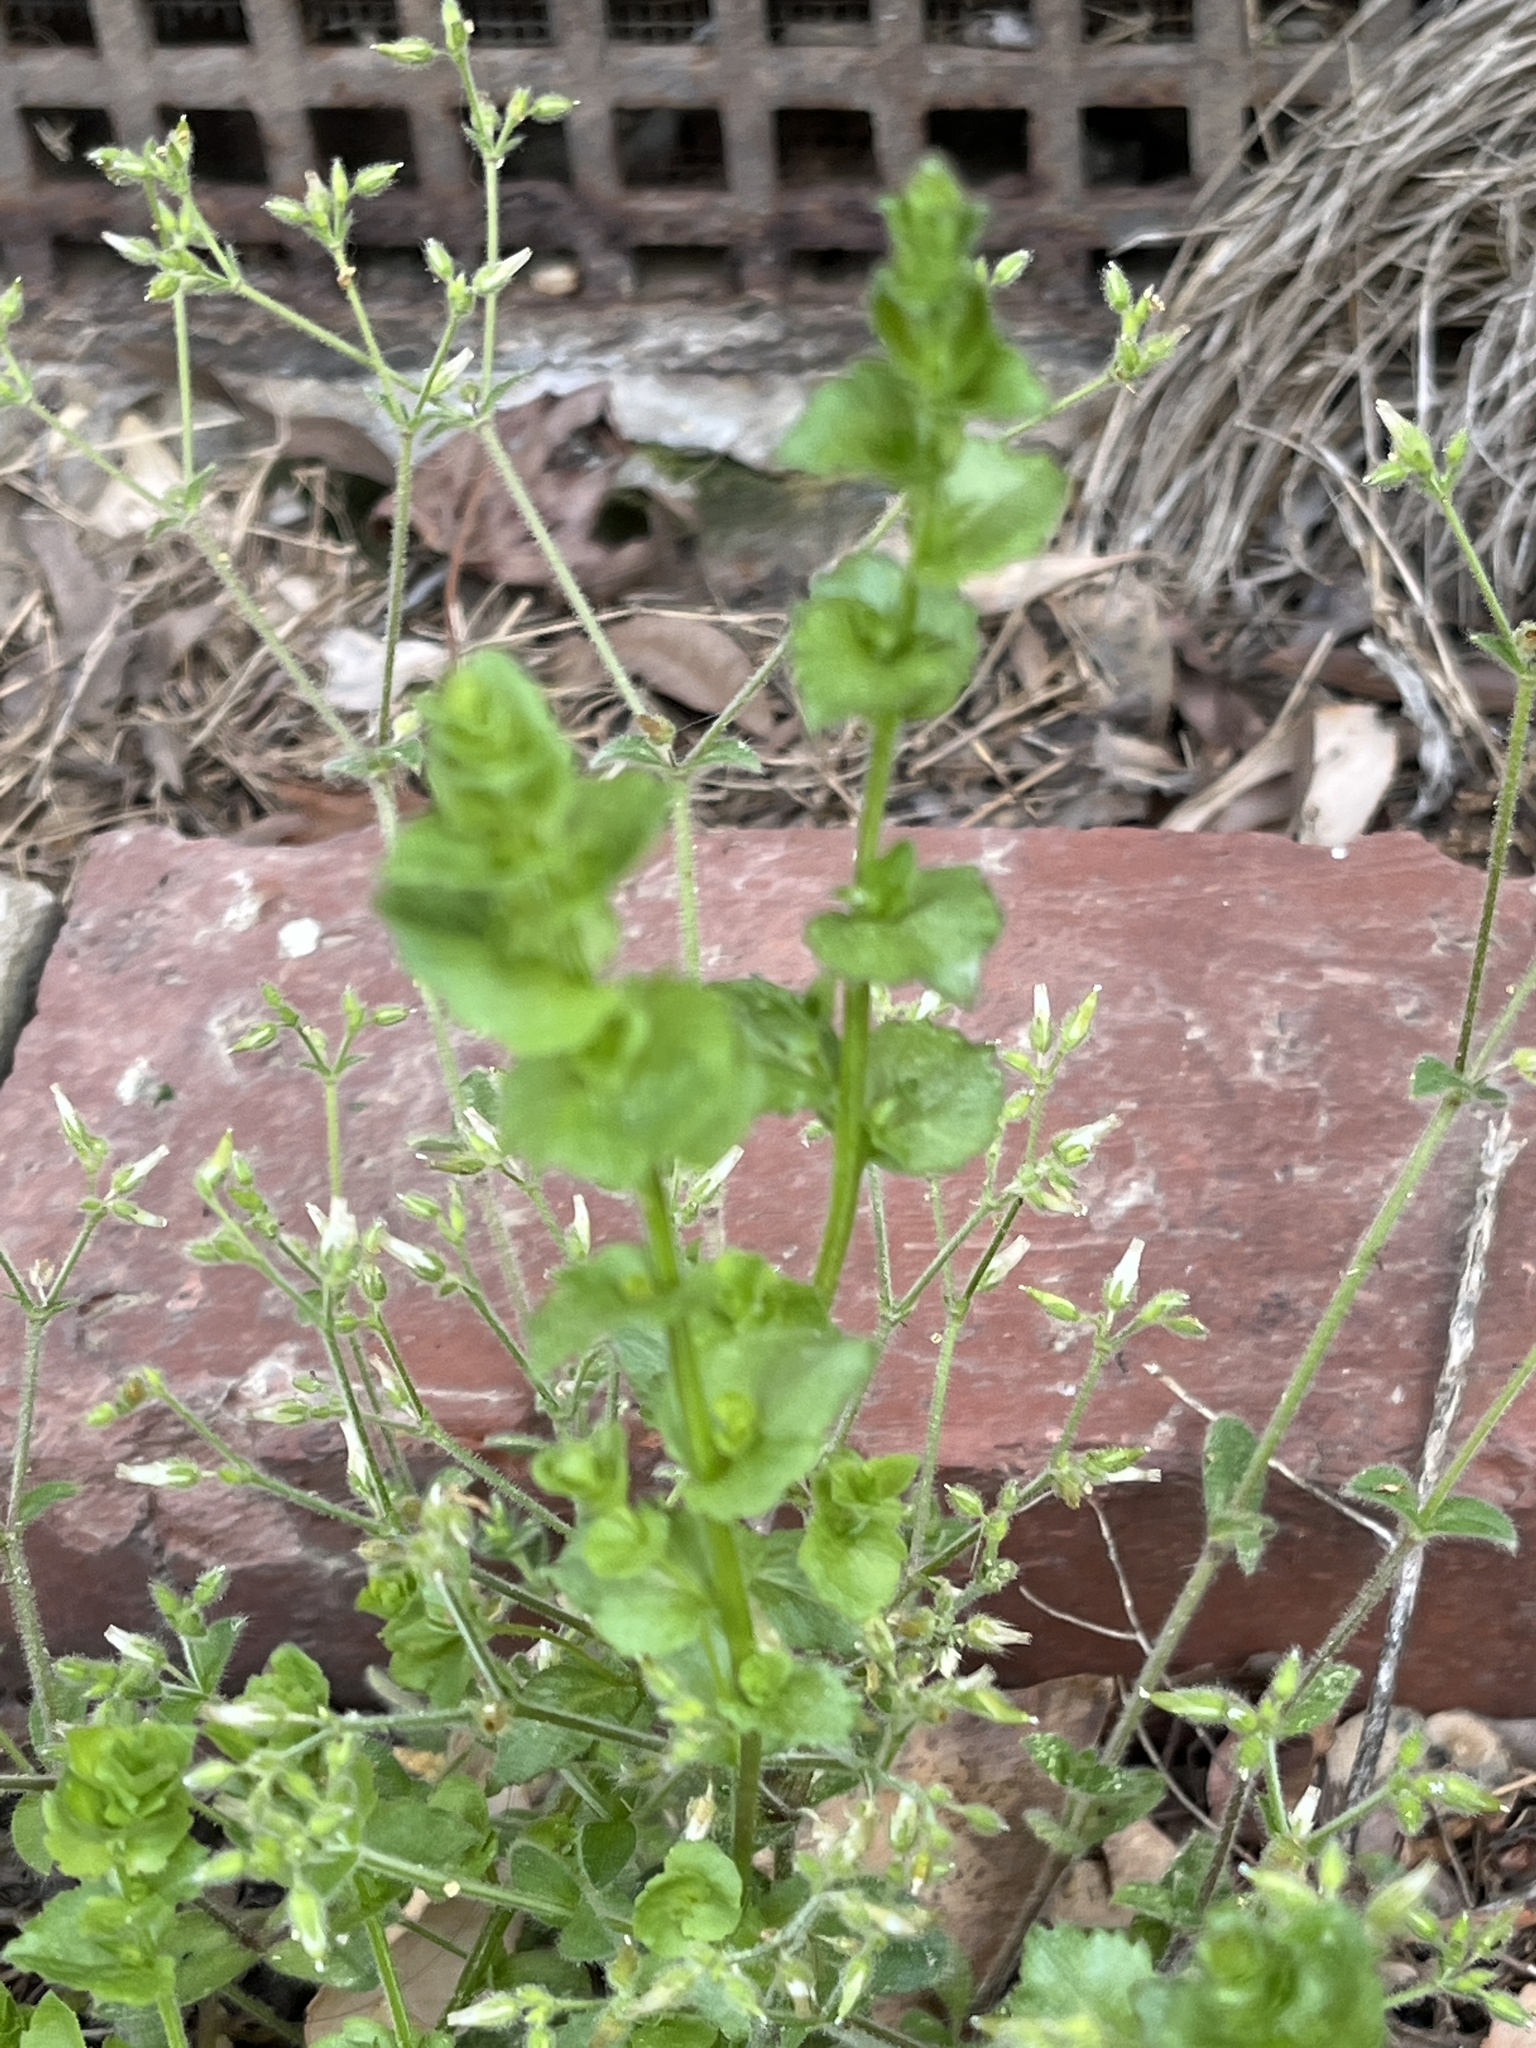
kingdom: Plantae
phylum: Tracheophyta
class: Magnoliopsida
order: Asterales
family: Campanulaceae
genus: Triodanis
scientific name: Triodanis perfoliata
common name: Clasping venus' looking-glass
